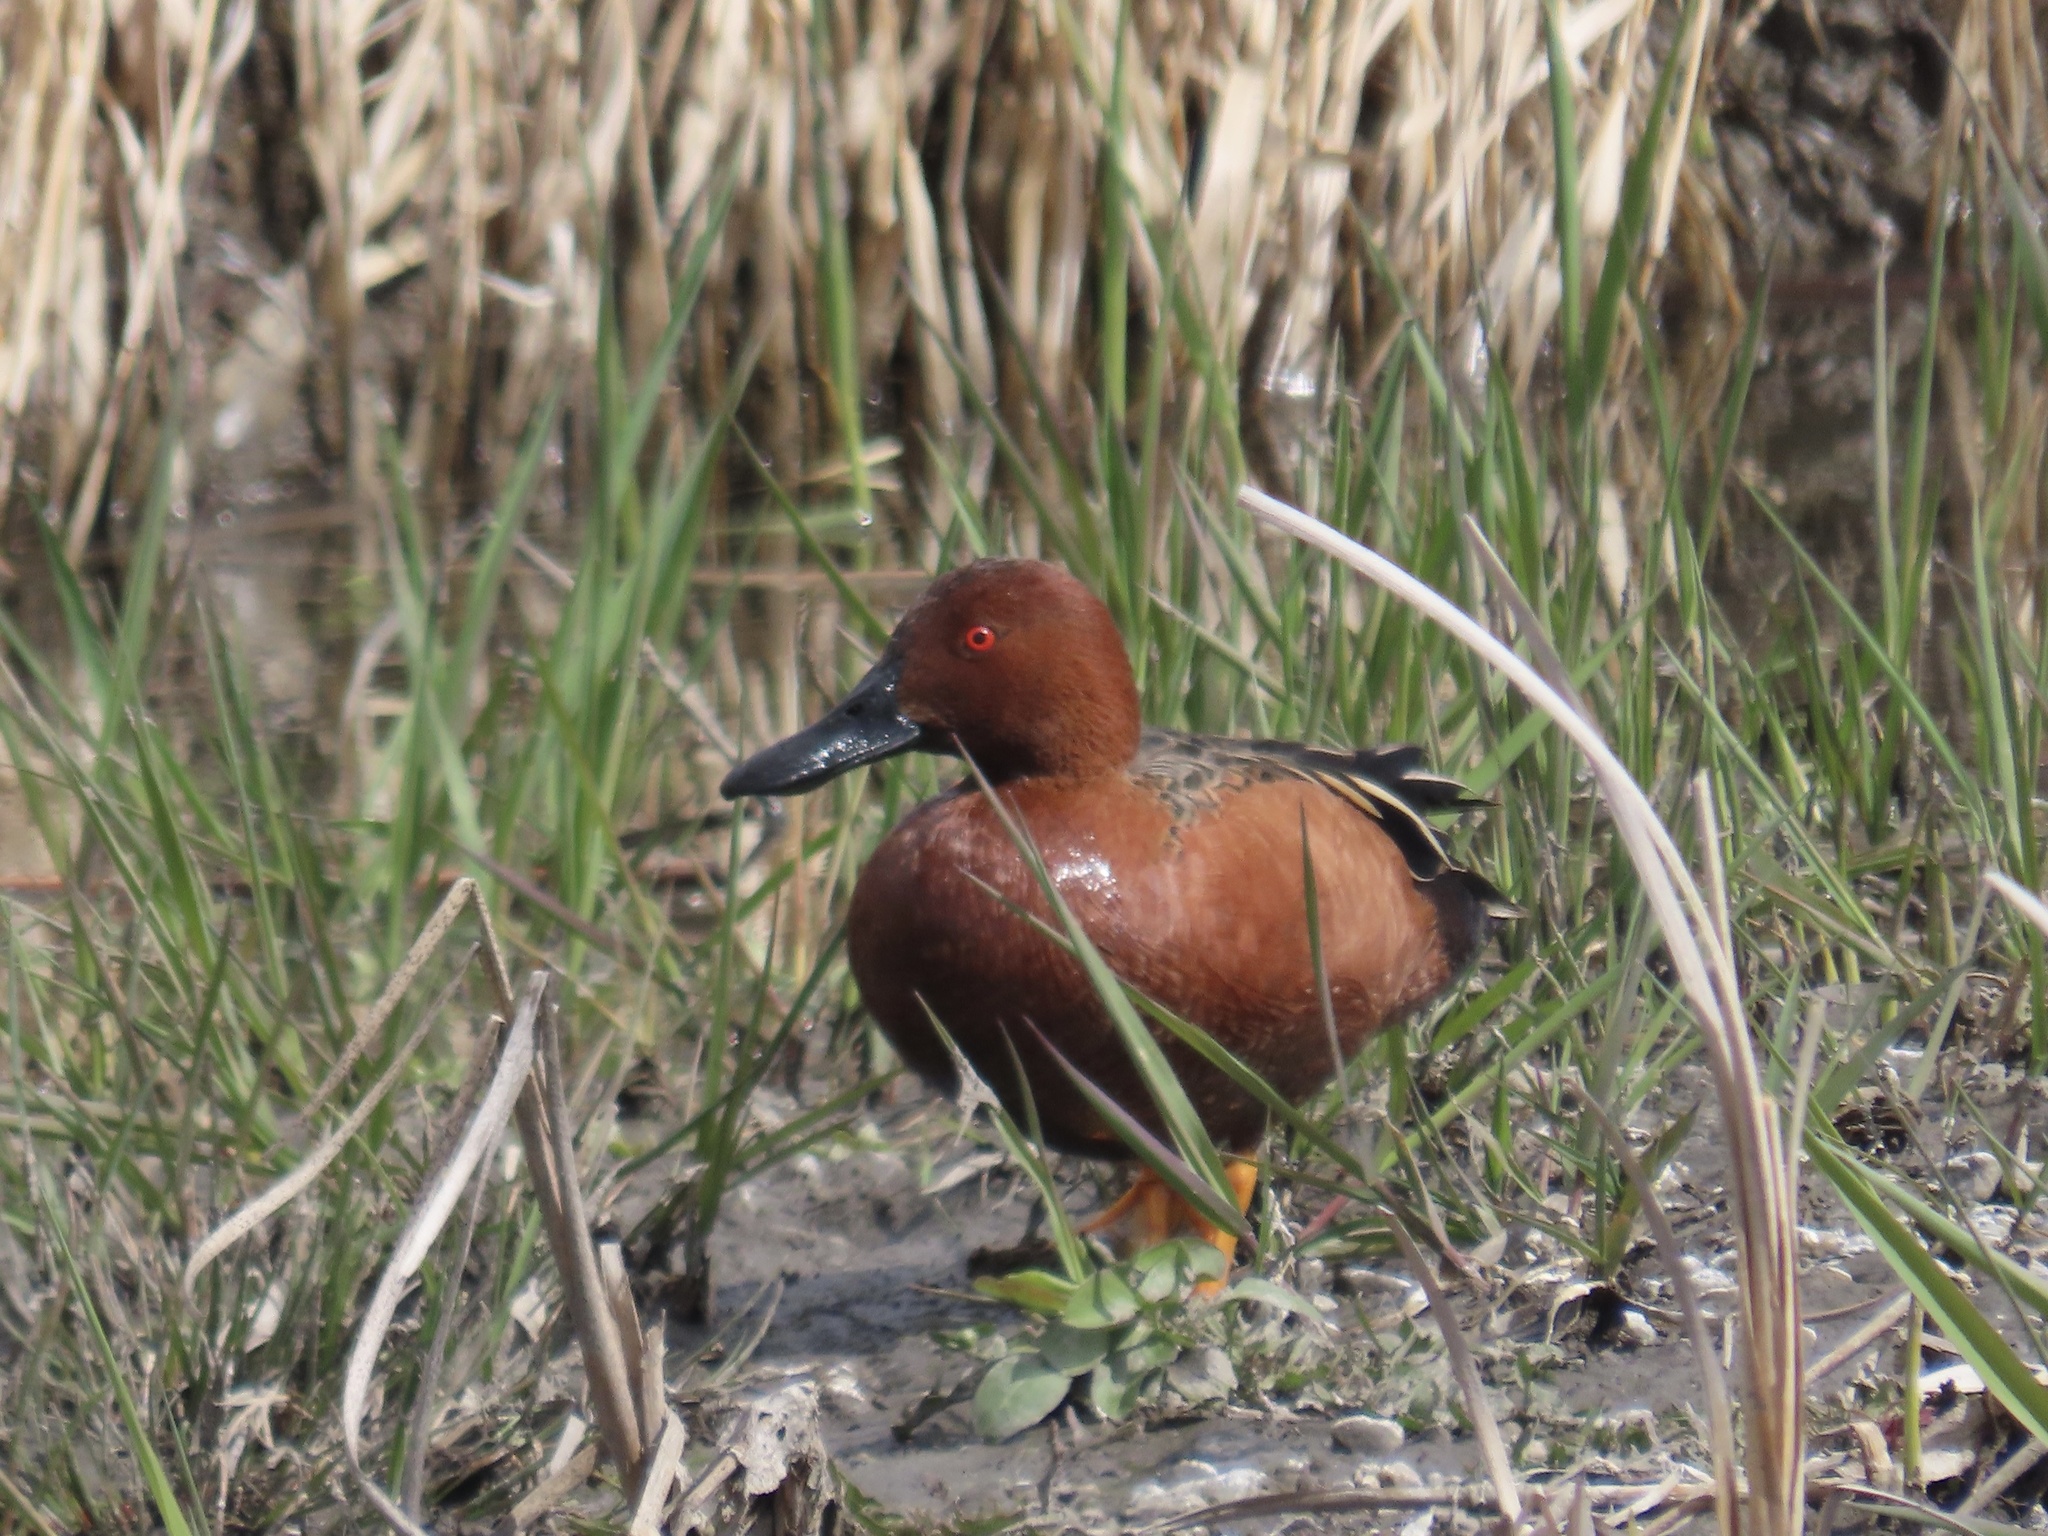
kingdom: Animalia
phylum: Chordata
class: Aves
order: Anseriformes
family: Anatidae
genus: Spatula
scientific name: Spatula cyanoptera
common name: Cinnamon teal
